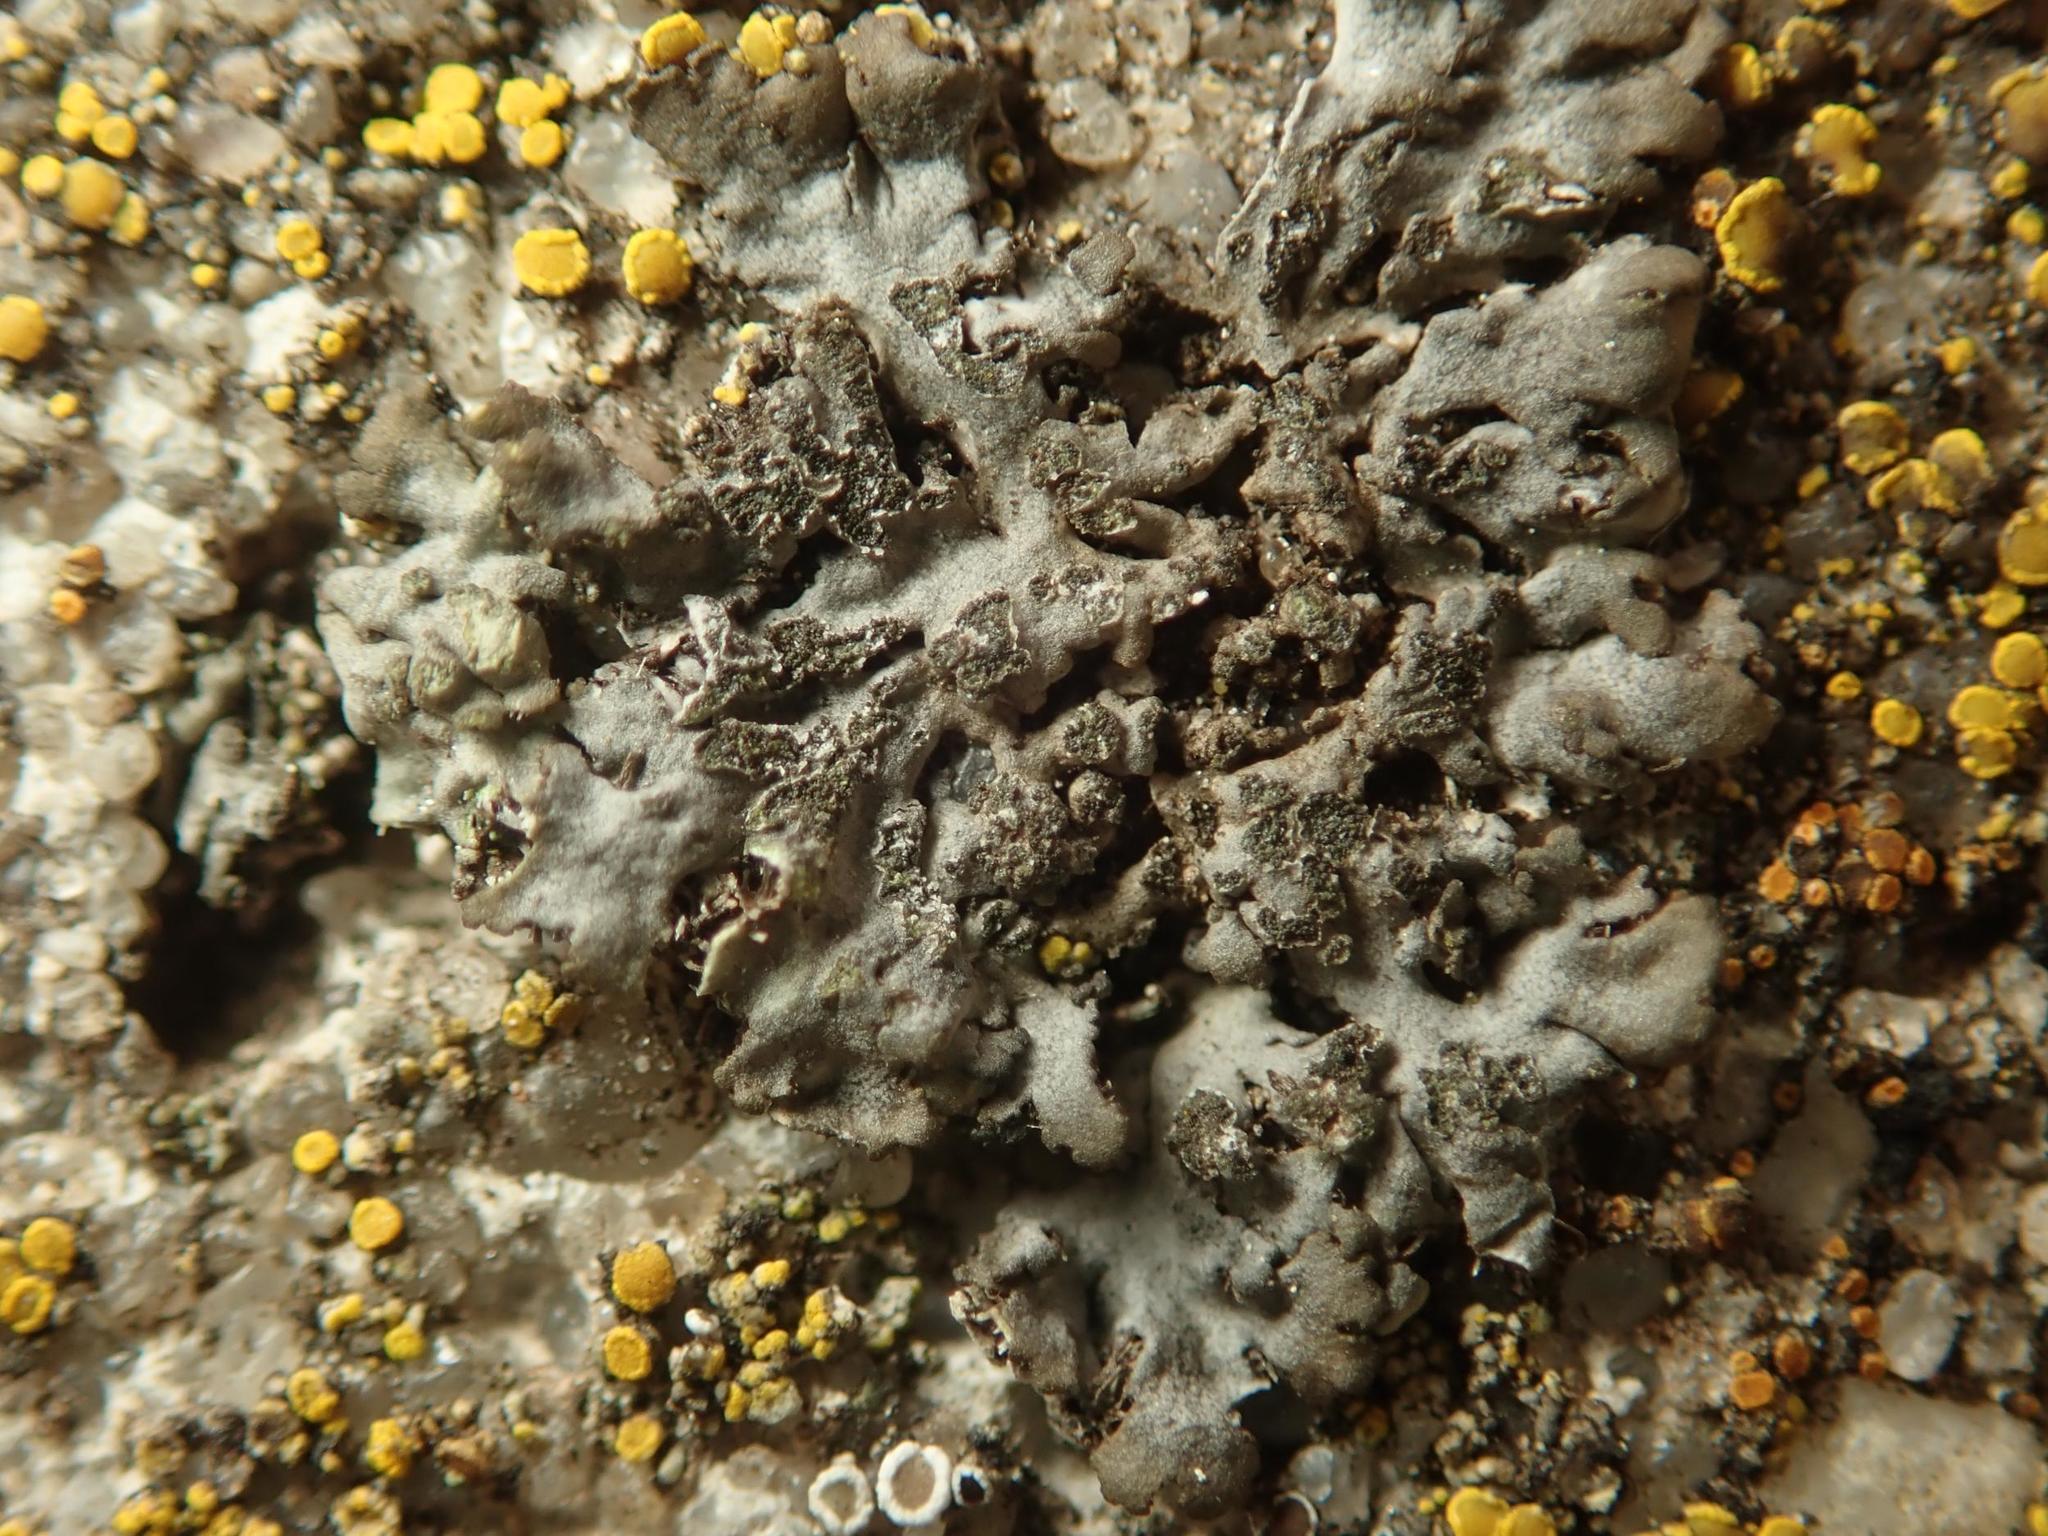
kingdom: Fungi
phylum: Ascomycota
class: Lecanoromycetes
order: Caliciales
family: Physciaceae
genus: Phaeophyscia
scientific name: Phaeophyscia orbicularis
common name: Mealy shadow lichen
